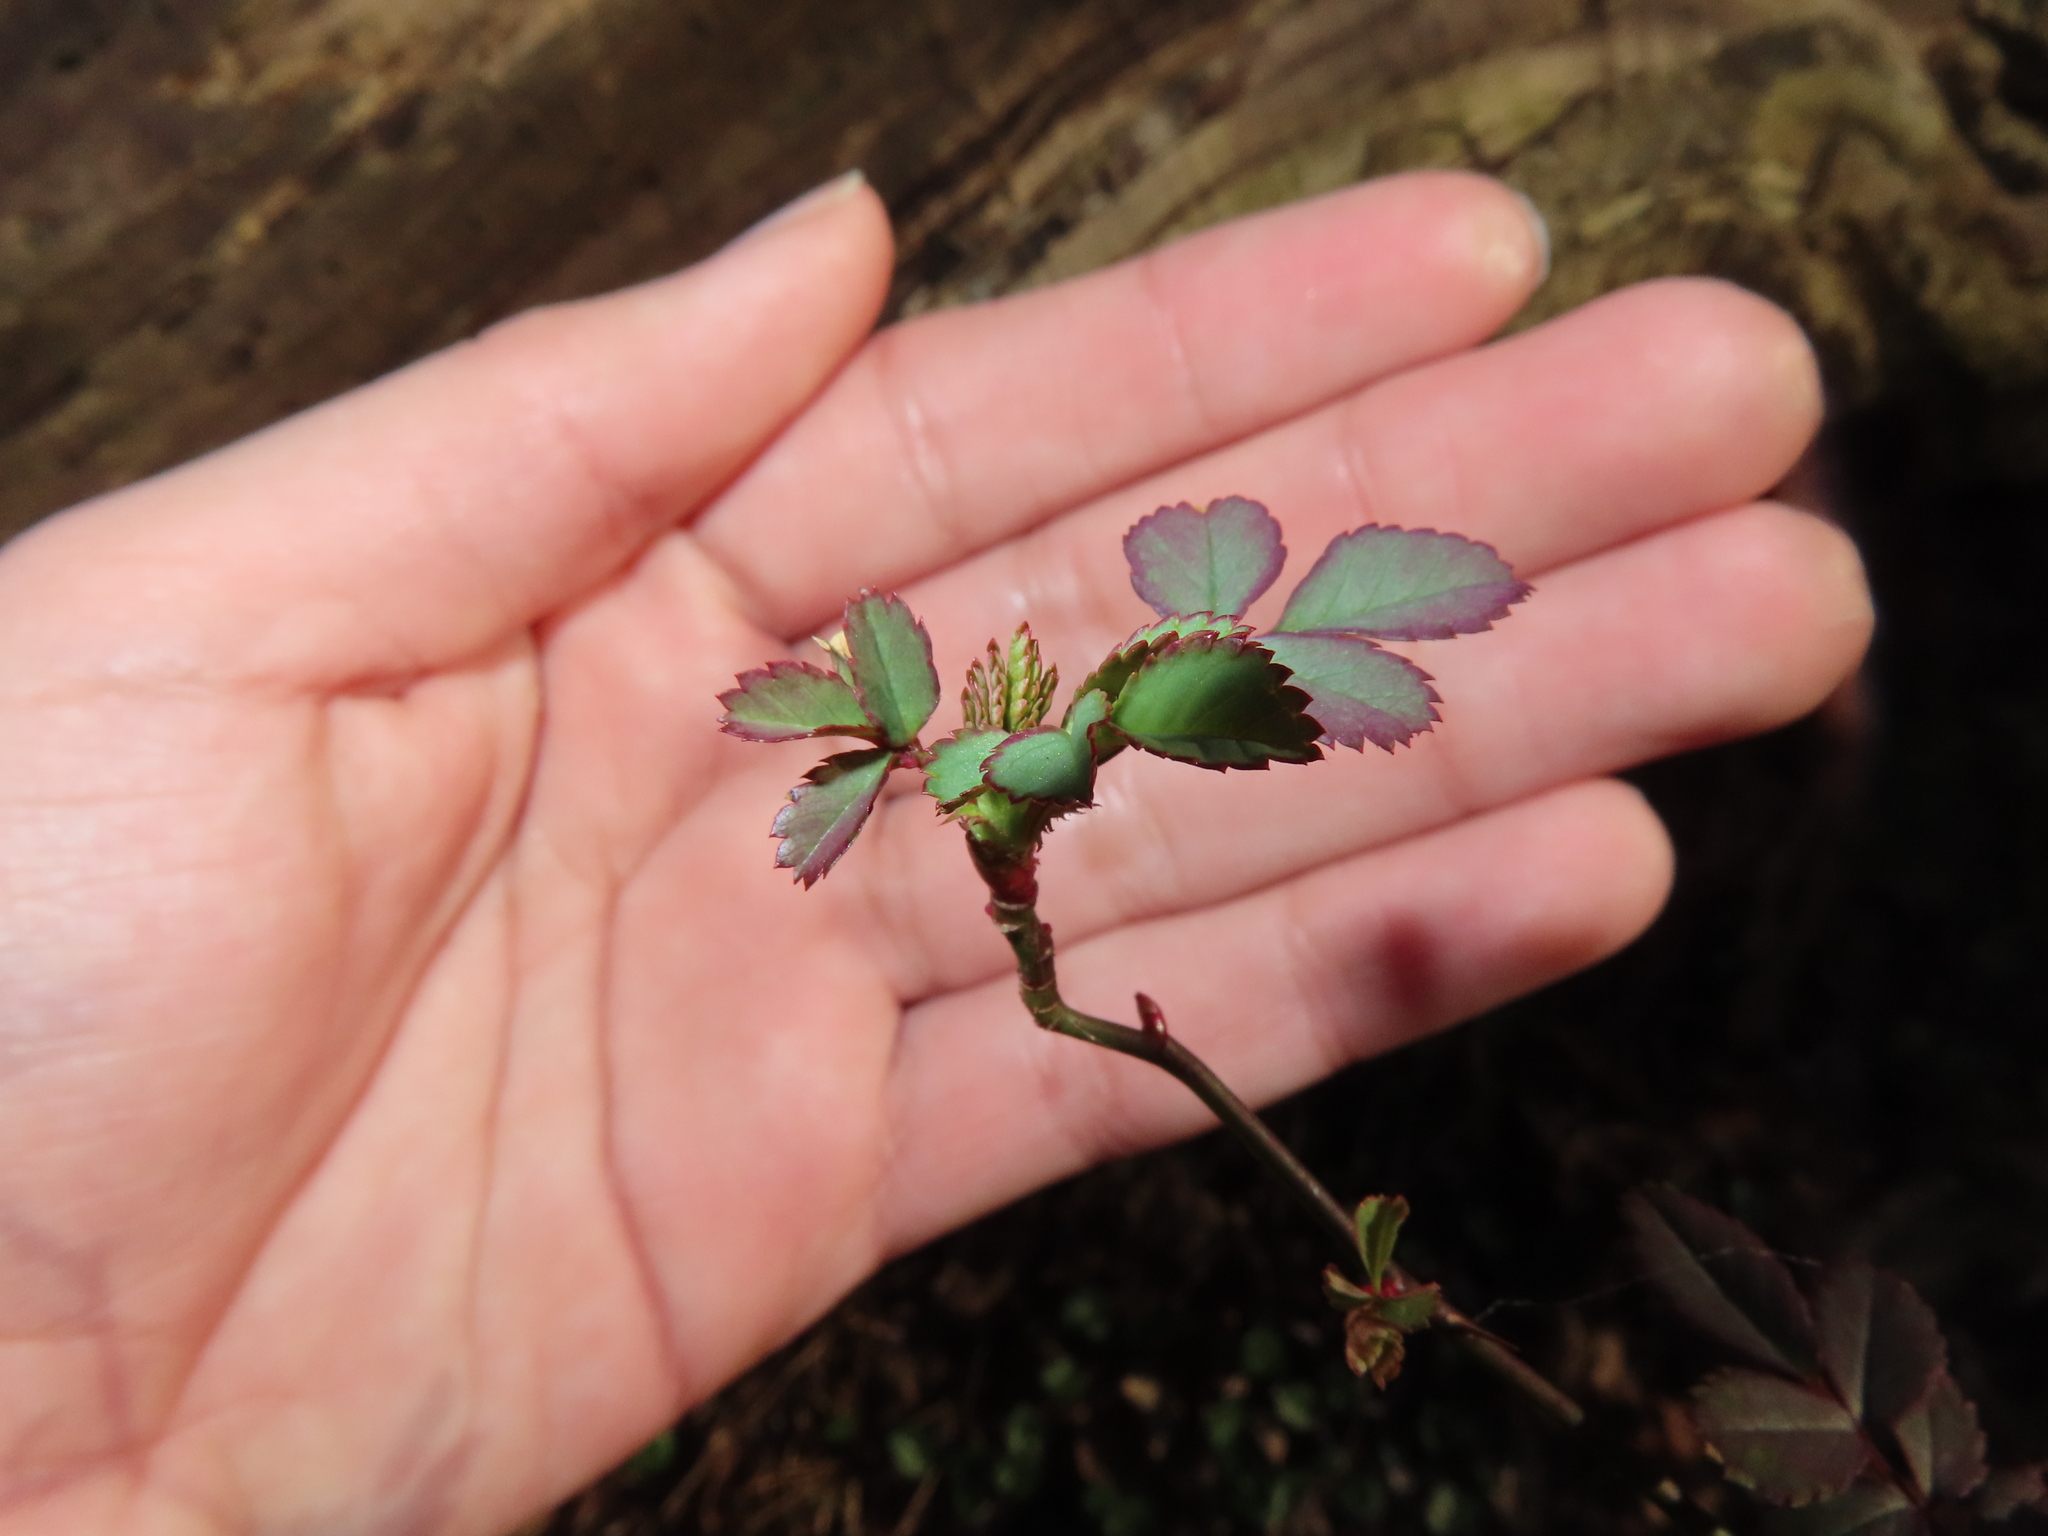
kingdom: Plantae
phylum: Tracheophyta
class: Magnoliopsida
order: Lamiales
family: Oleaceae
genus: Ligustrum
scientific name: Ligustrum obtusifolium
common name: Border privet
